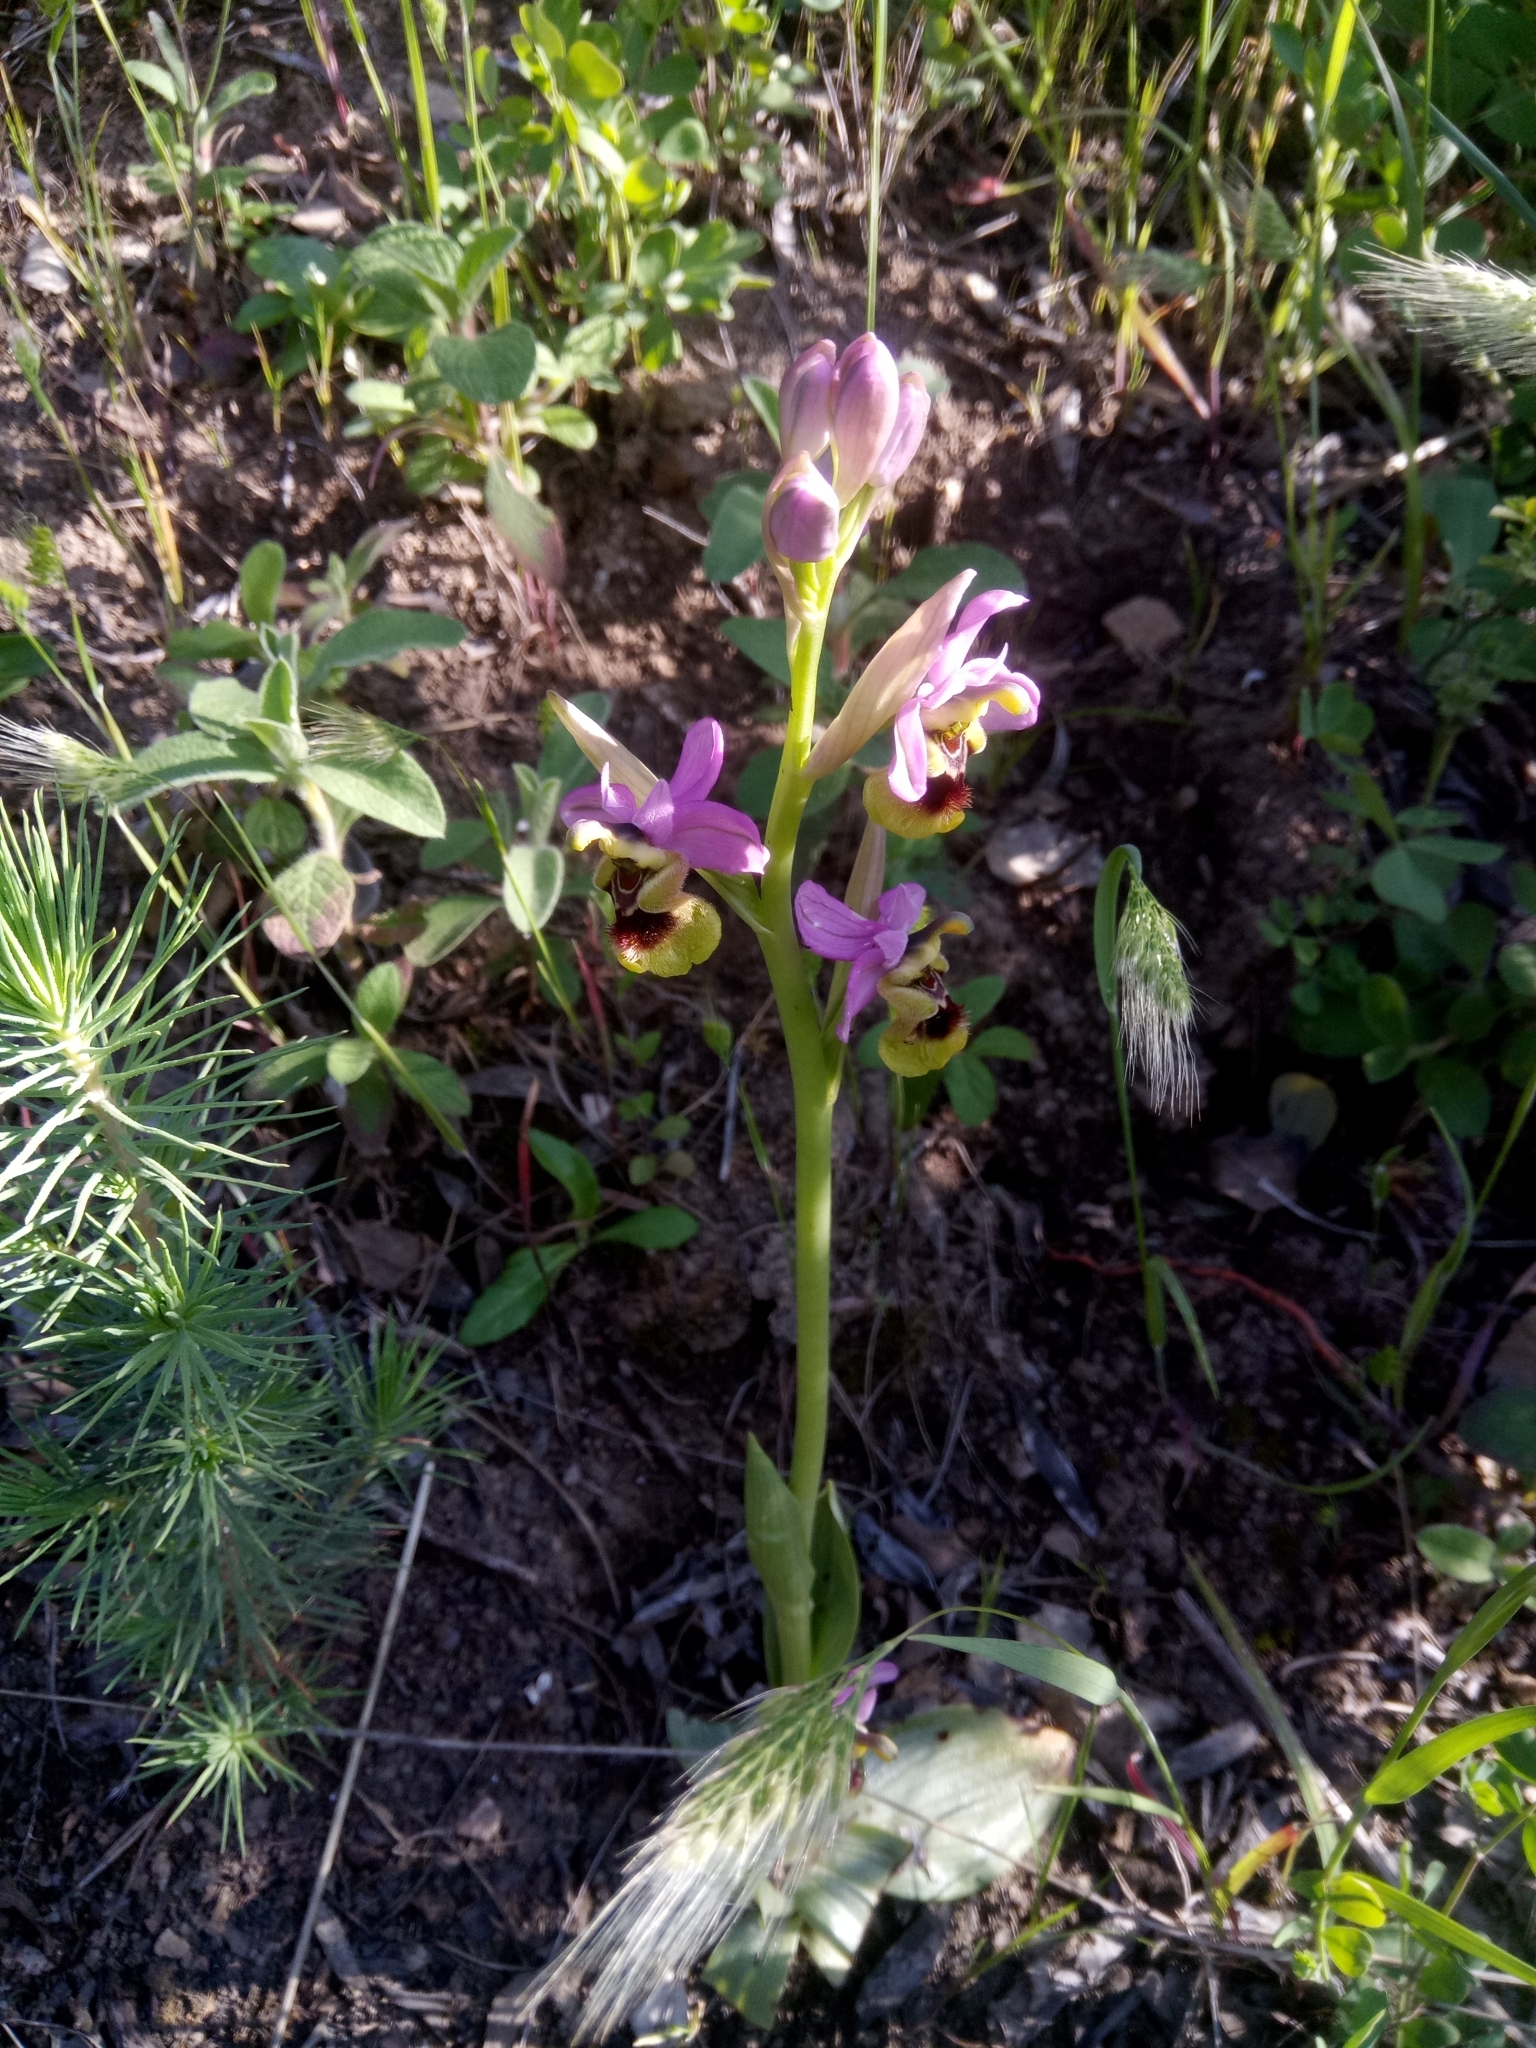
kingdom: Plantae
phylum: Tracheophyta
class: Liliopsida
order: Asparagales
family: Orchidaceae
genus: Ophrys
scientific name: Ophrys tenthredinifera
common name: Sawfly orchid
